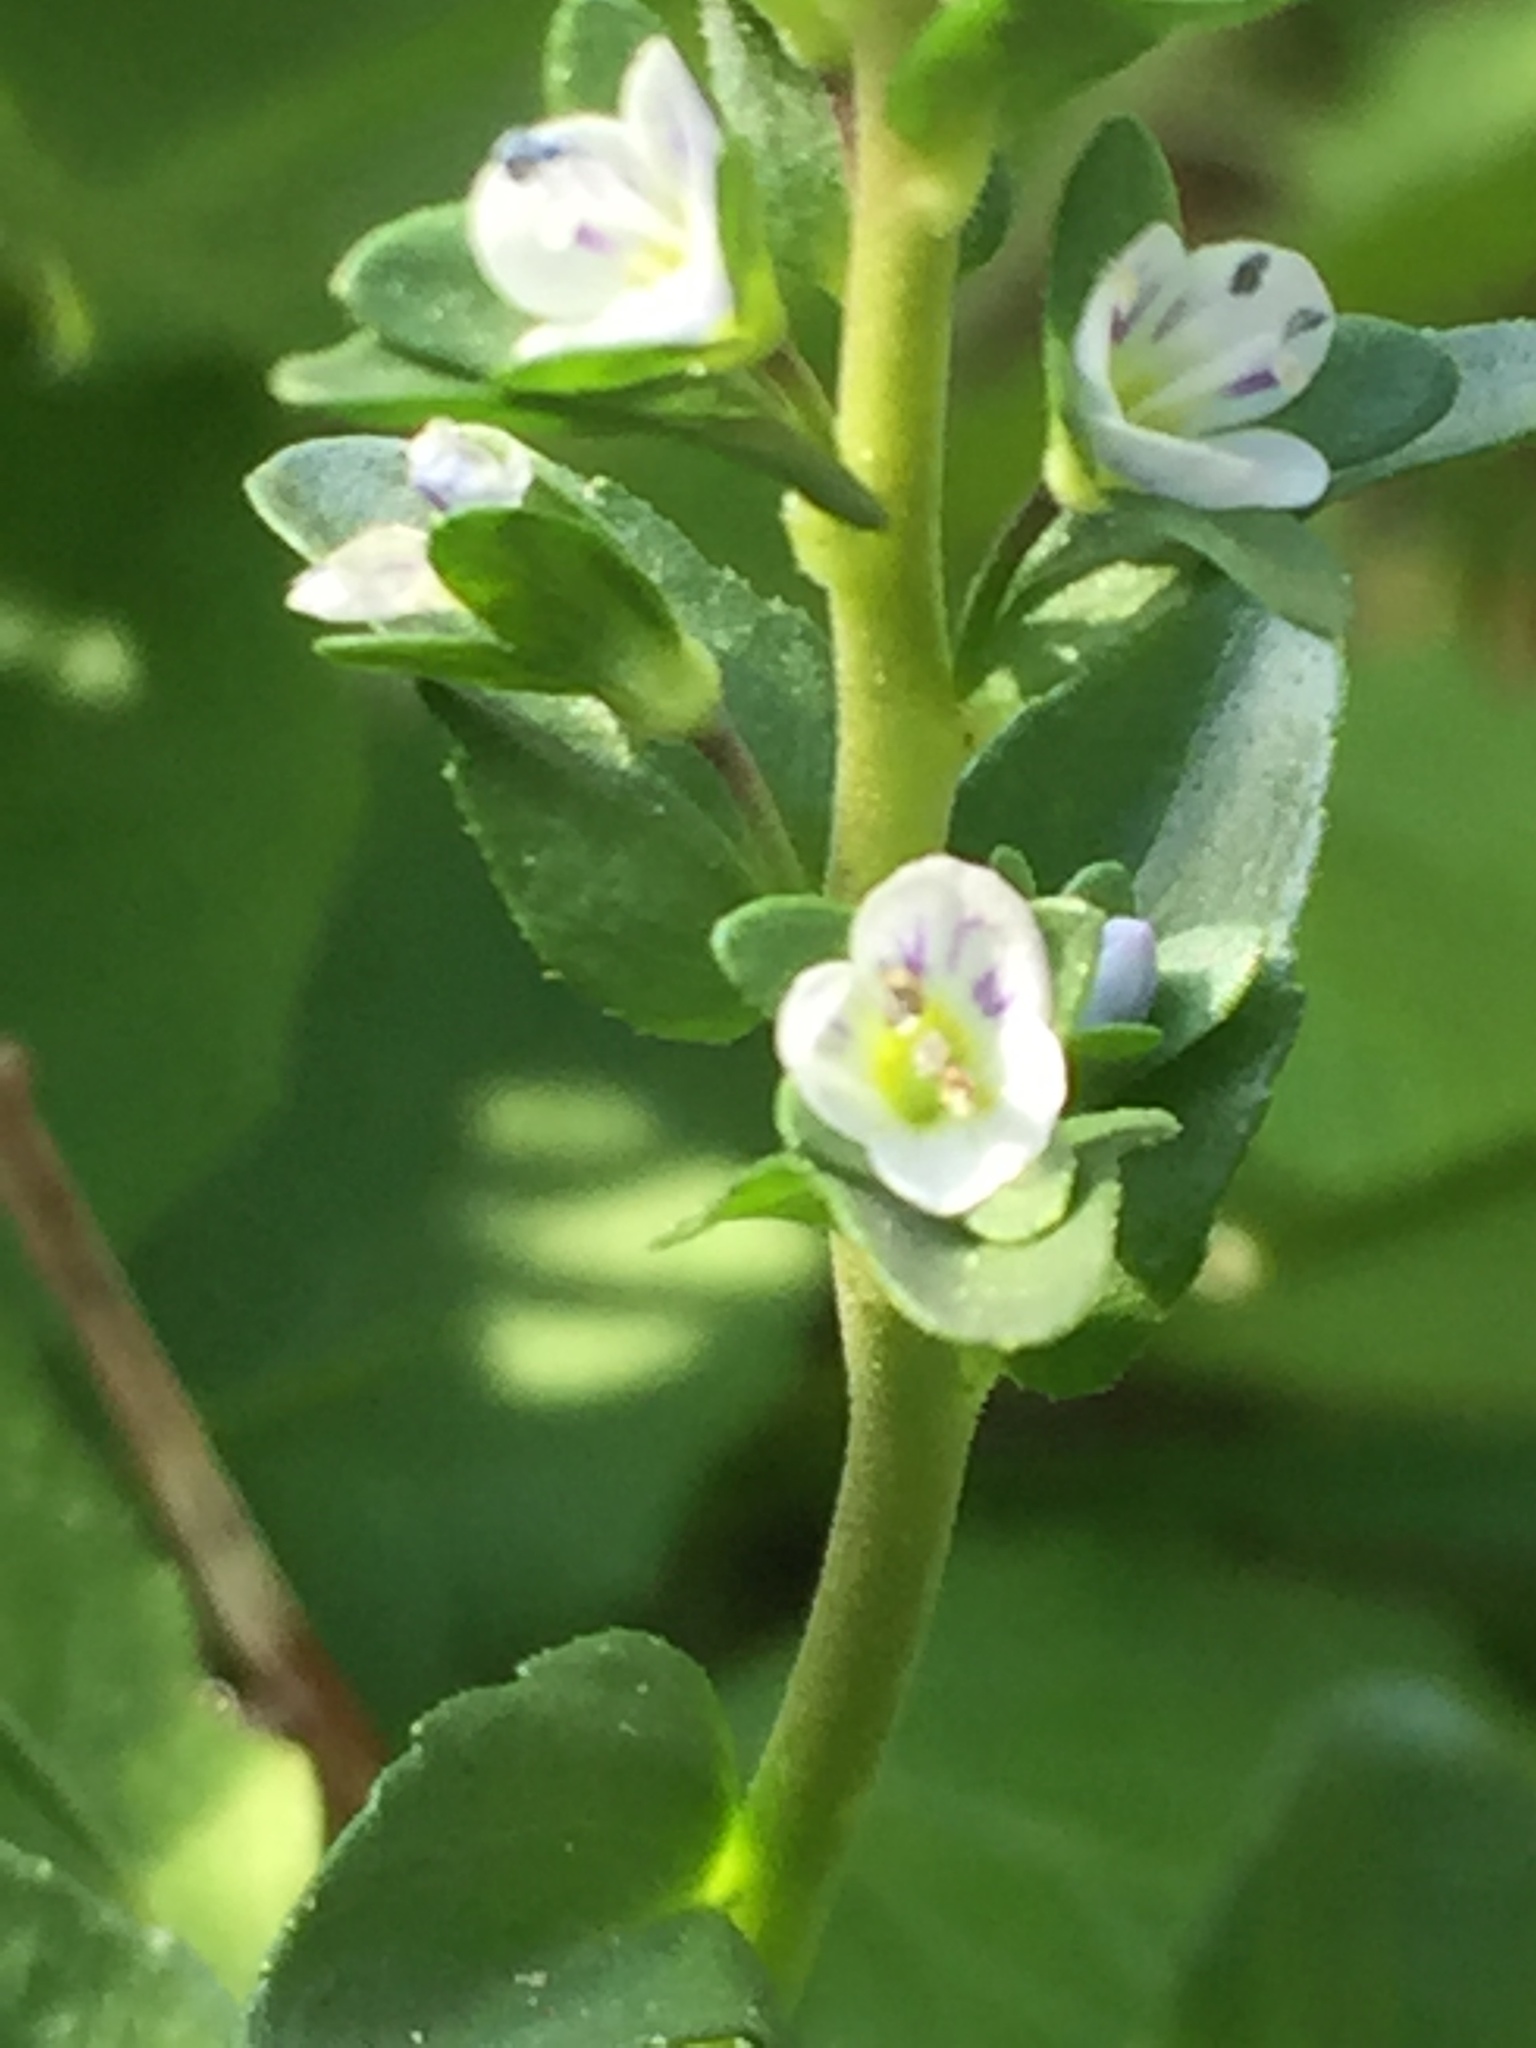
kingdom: Plantae
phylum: Tracheophyta
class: Magnoliopsida
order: Lamiales
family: Plantaginaceae
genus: Veronica
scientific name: Veronica serpyllifolia
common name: Thyme-leaved speedwell
